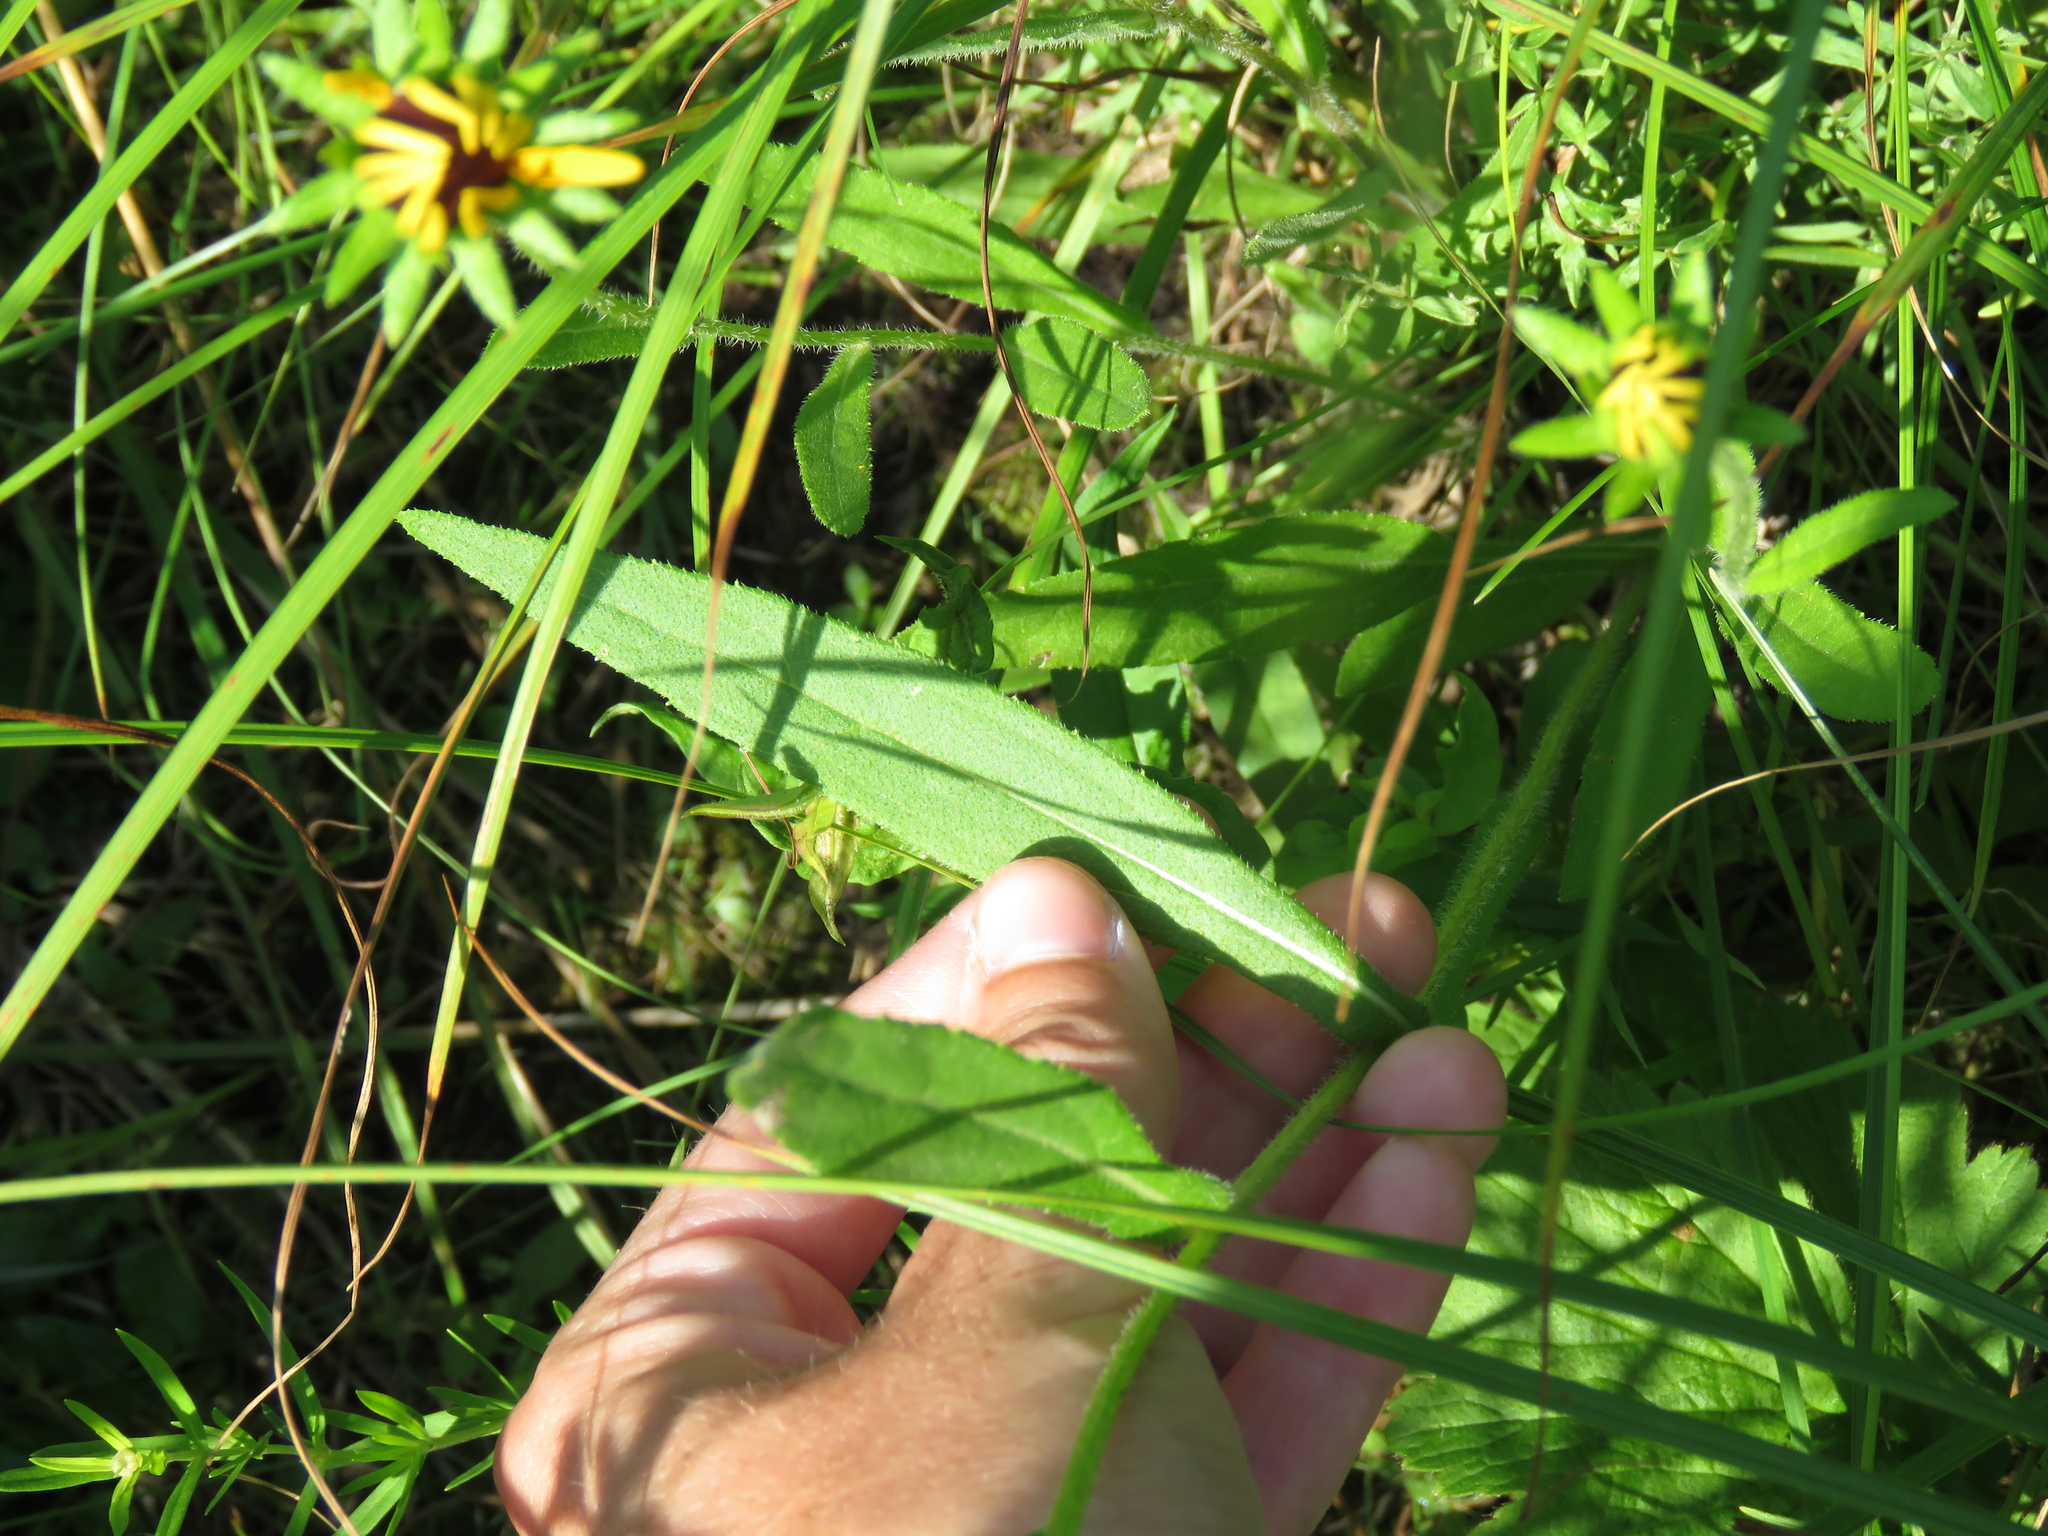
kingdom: Plantae
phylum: Tracheophyta
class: Magnoliopsida
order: Asterales
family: Asteraceae
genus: Rudbeckia
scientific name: Rudbeckia hirta
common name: Black-eyed-susan
